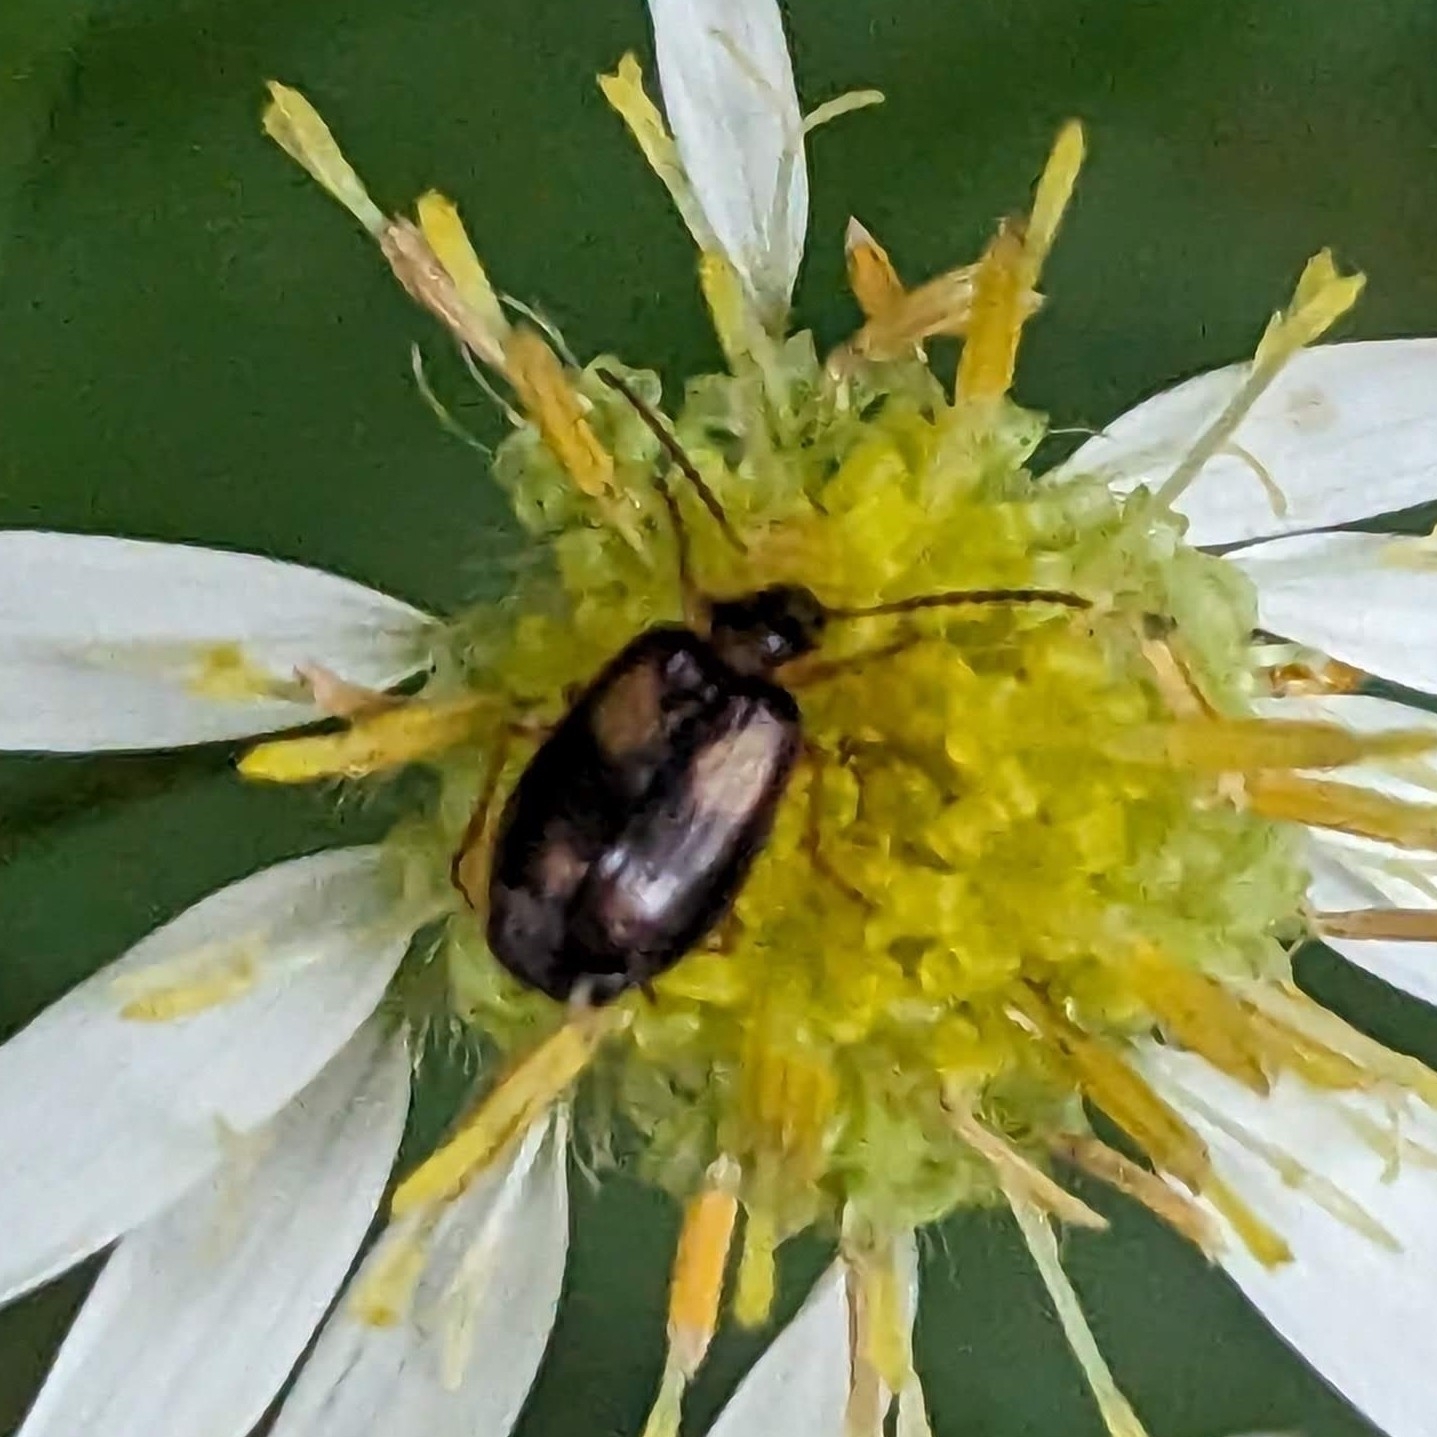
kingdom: Animalia
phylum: Arthropoda
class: Insecta
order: Coleoptera
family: Carabidae
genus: Lebia
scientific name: Lebia ornata
